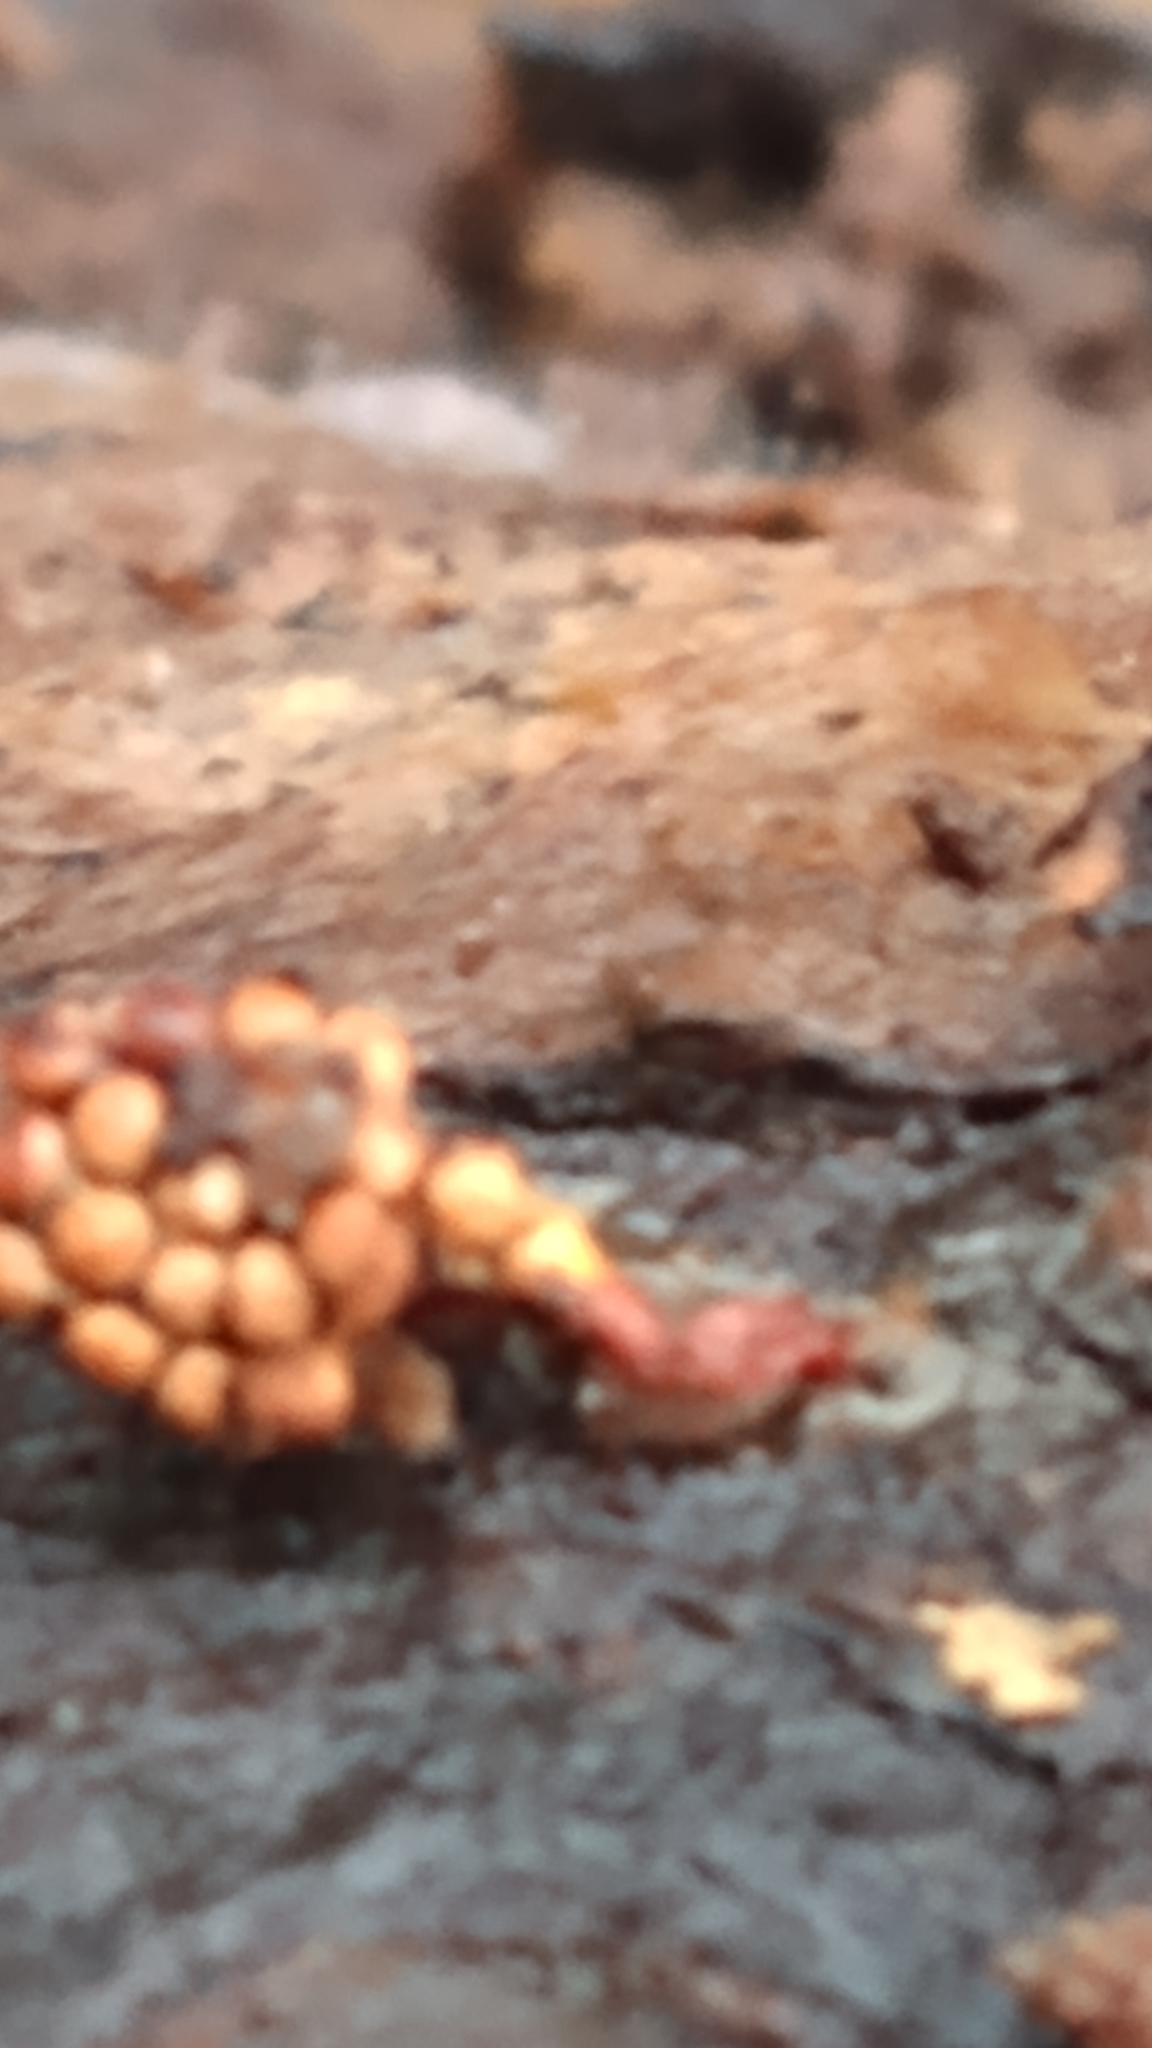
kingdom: Protozoa
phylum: Mycetozoa
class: Myxomycetes
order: Trichiales
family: Trichiaceae
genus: Metatrichia
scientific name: Metatrichia vesparia
